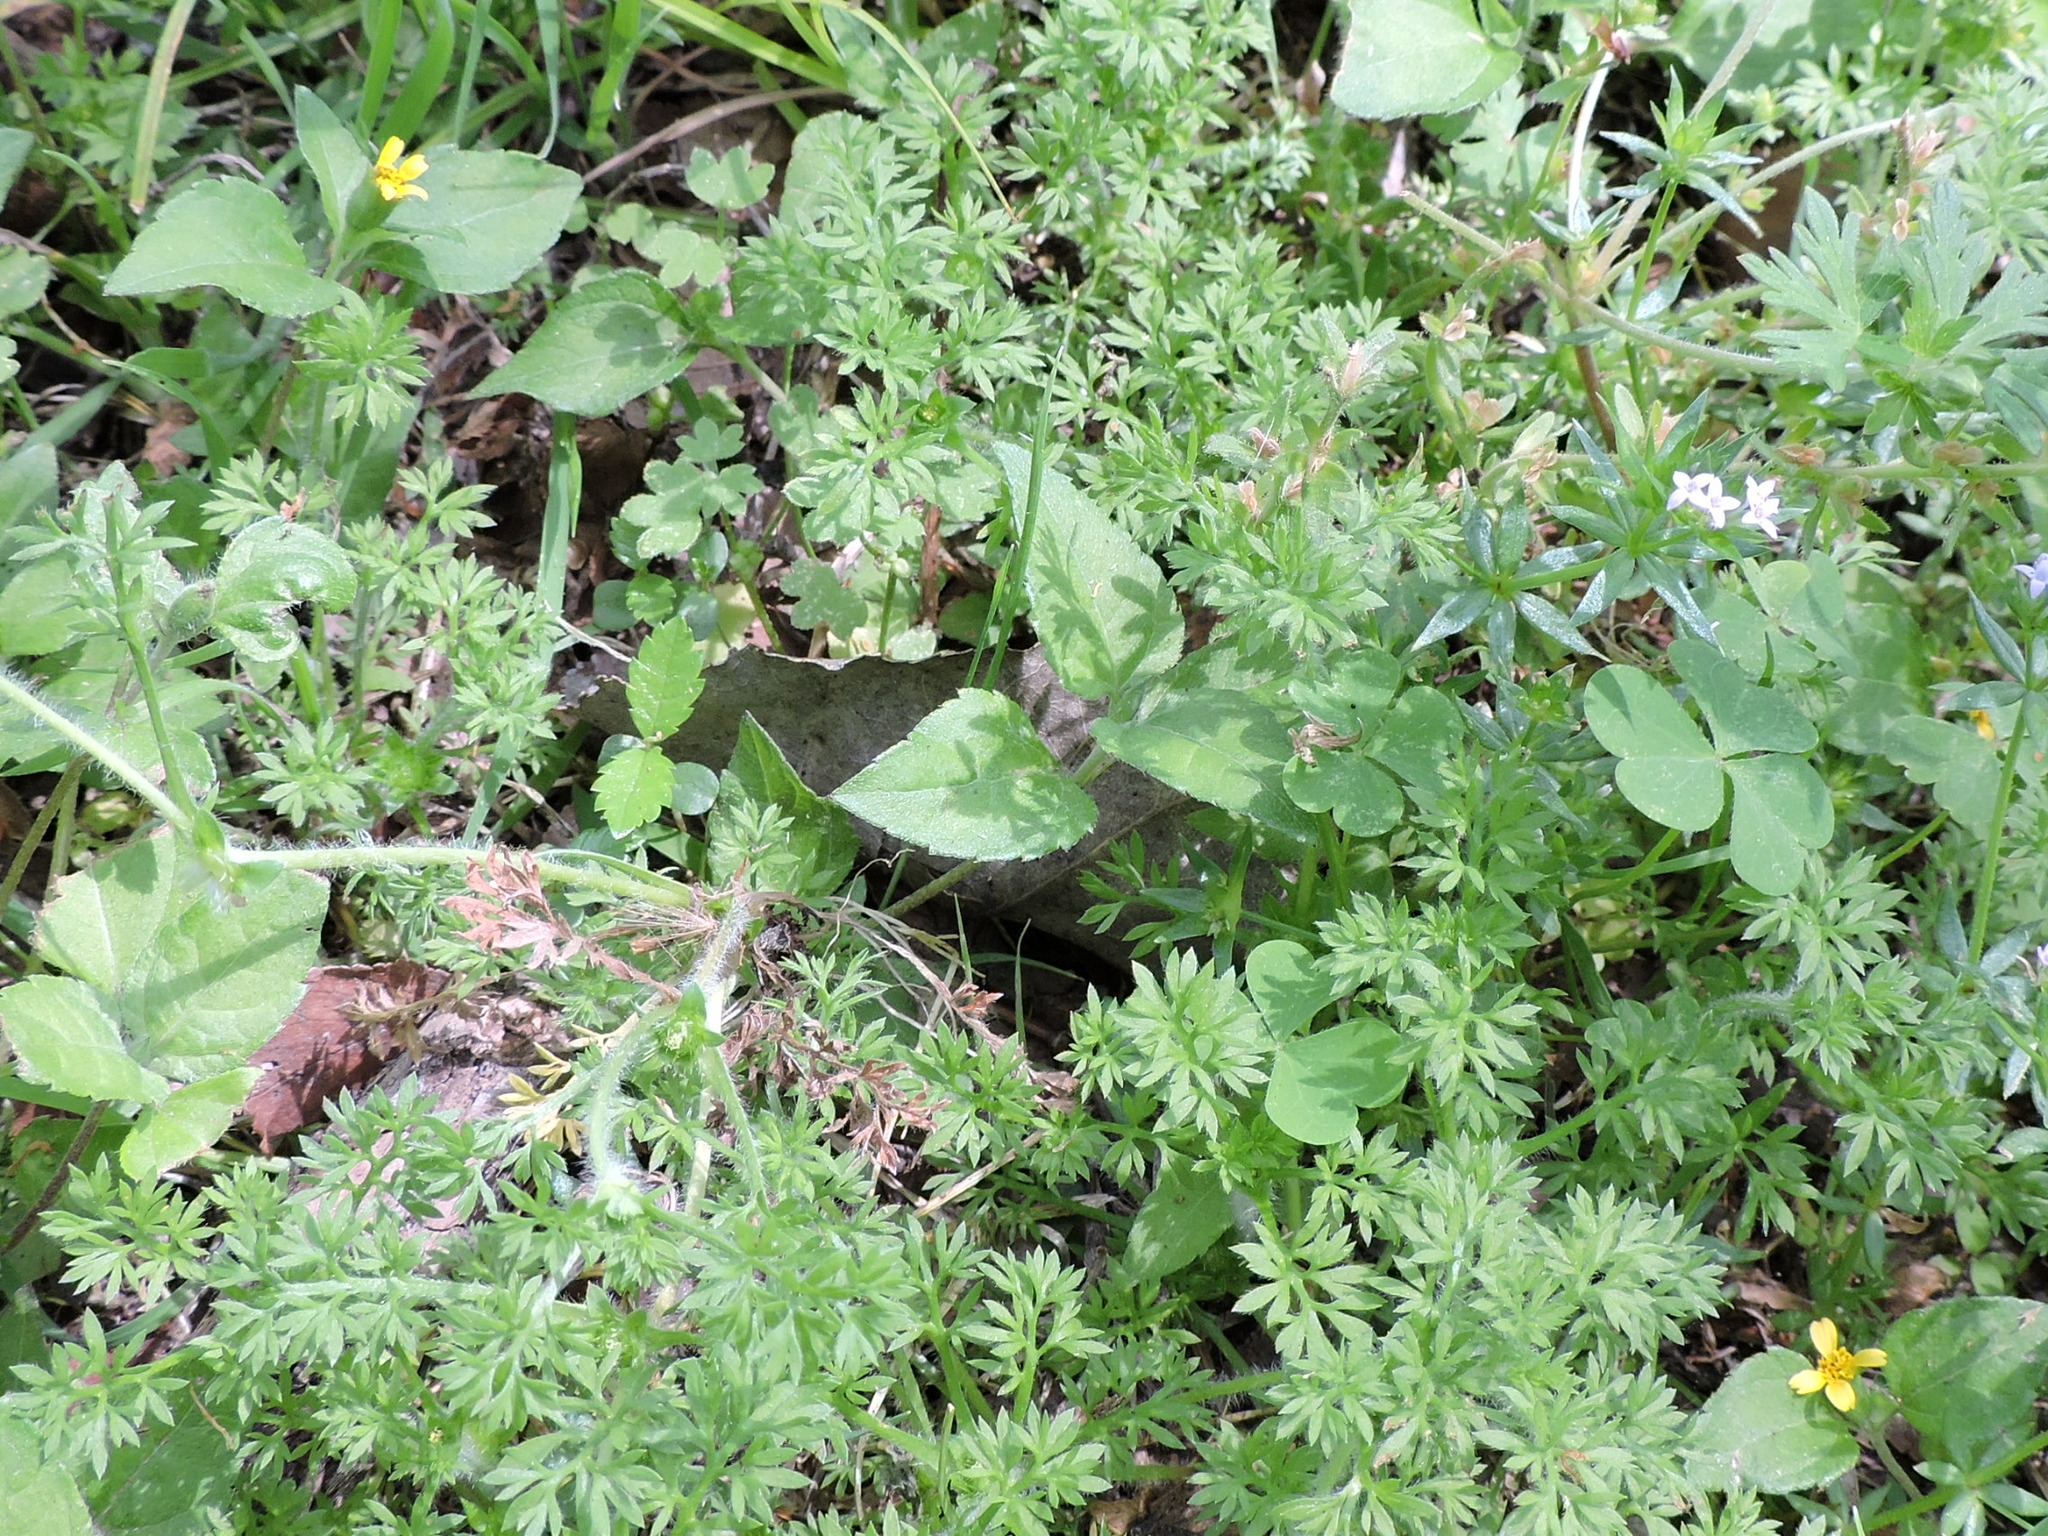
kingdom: Plantae
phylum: Tracheophyta
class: Magnoliopsida
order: Asterales
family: Asteraceae
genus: Soliva
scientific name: Soliva sessilis
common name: Field burrweed
